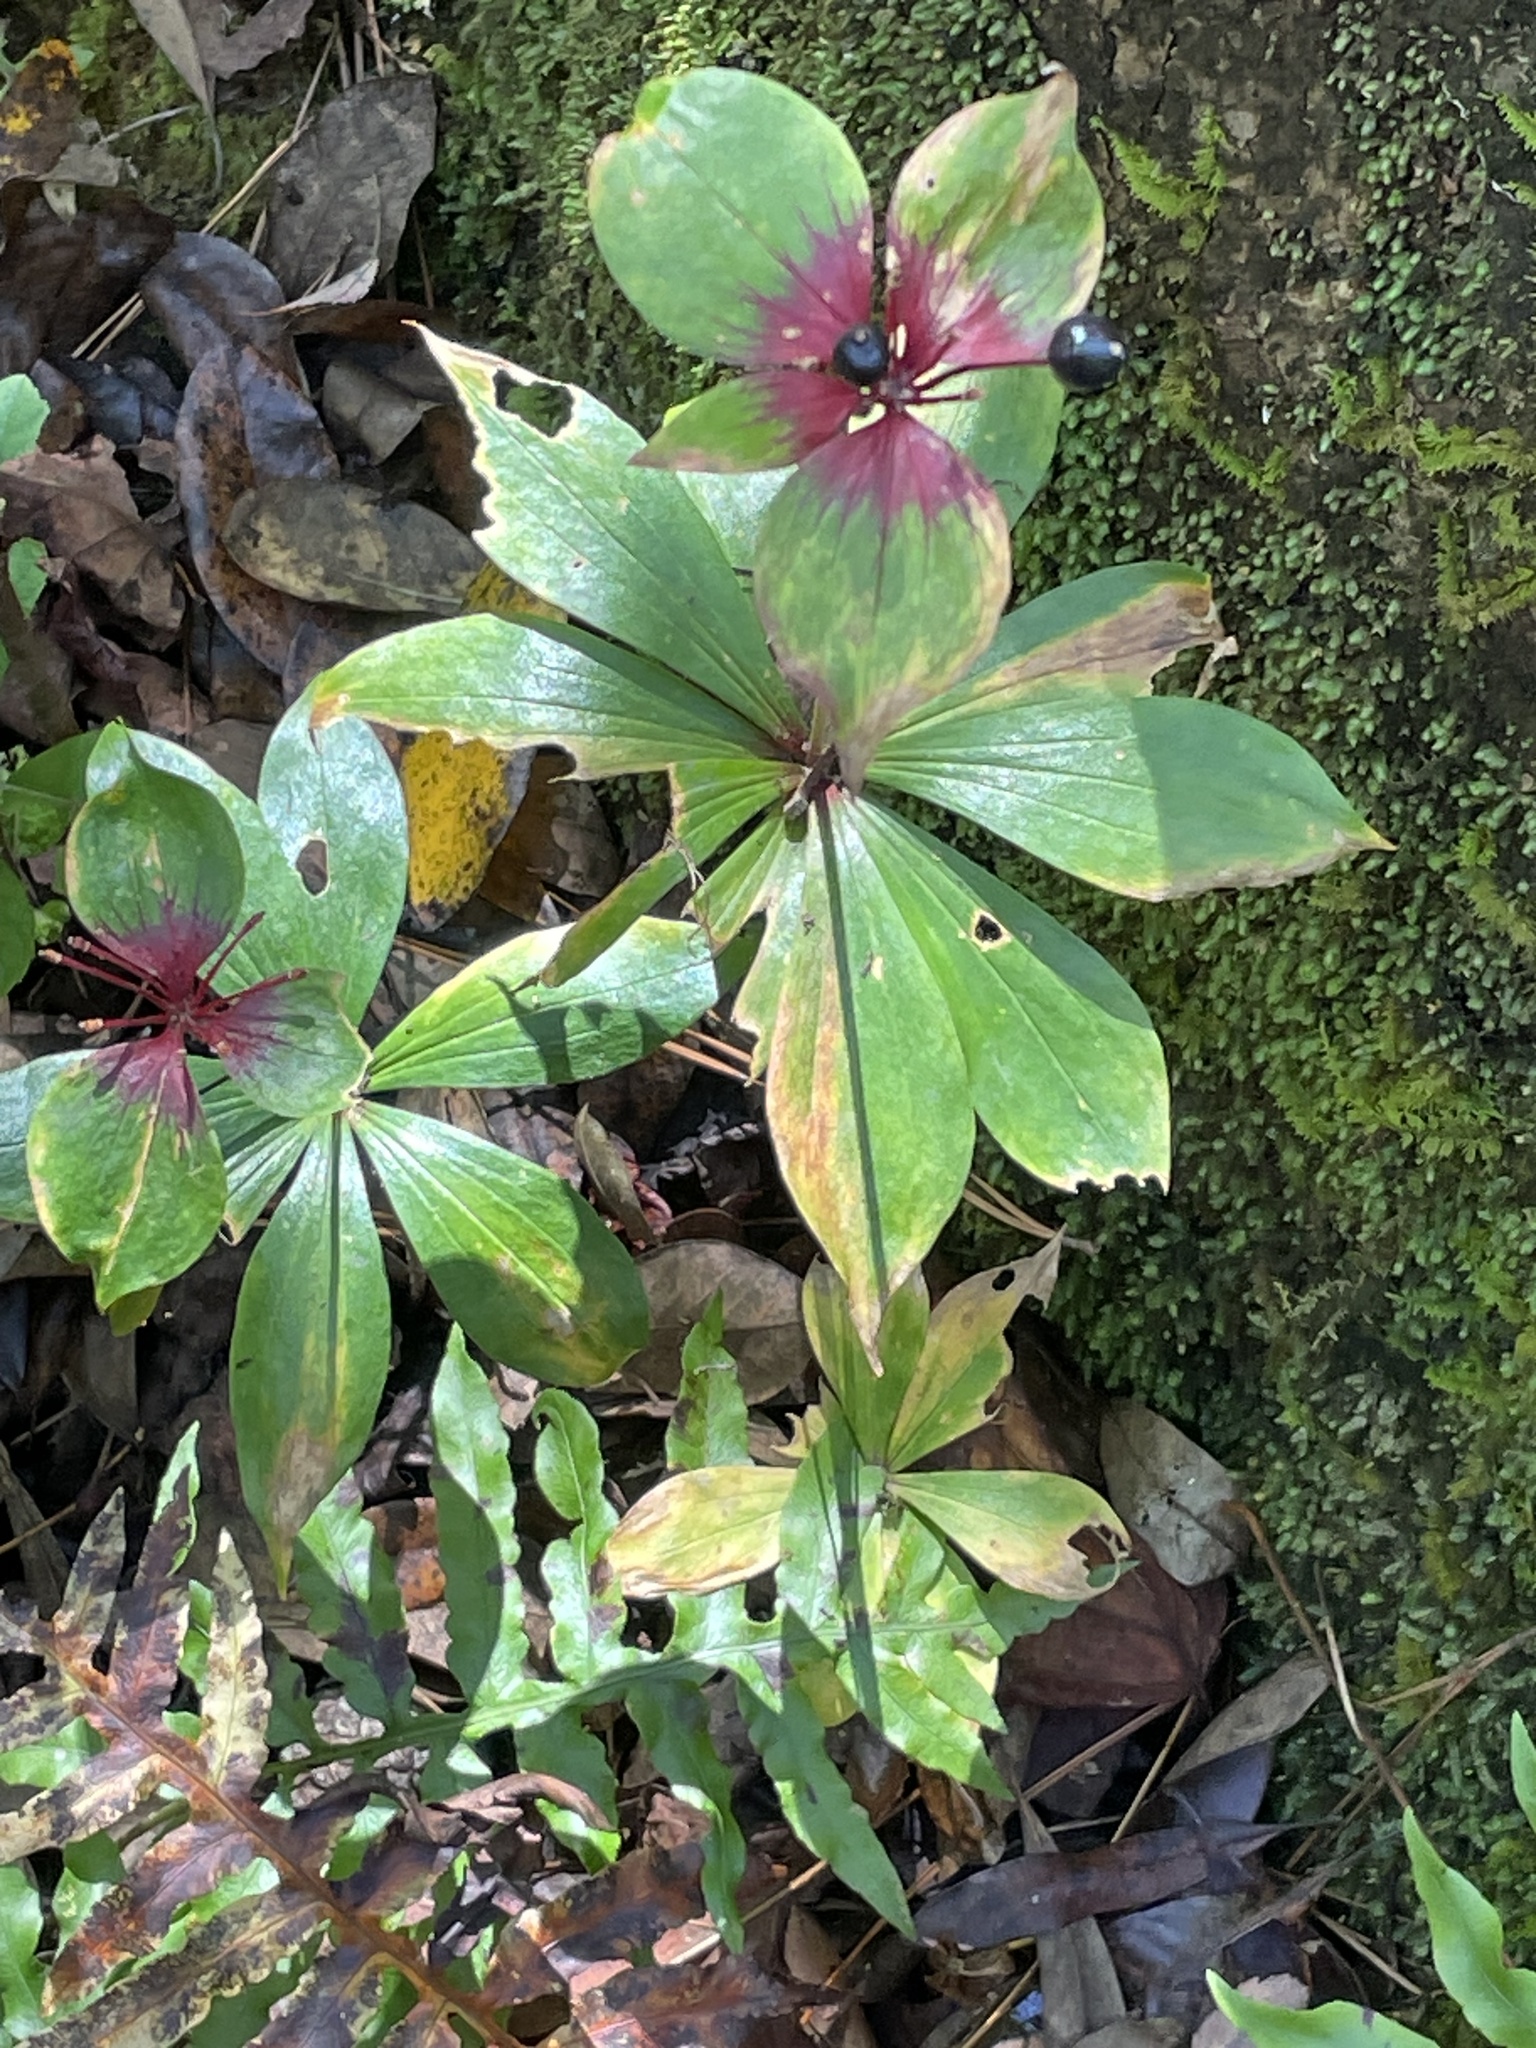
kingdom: Plantae
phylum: Tracheophyta
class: Liliopsida
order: Liliales
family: Liliaceae
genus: Medeola
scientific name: Medeola virginiana
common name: Indian cucumber-root
